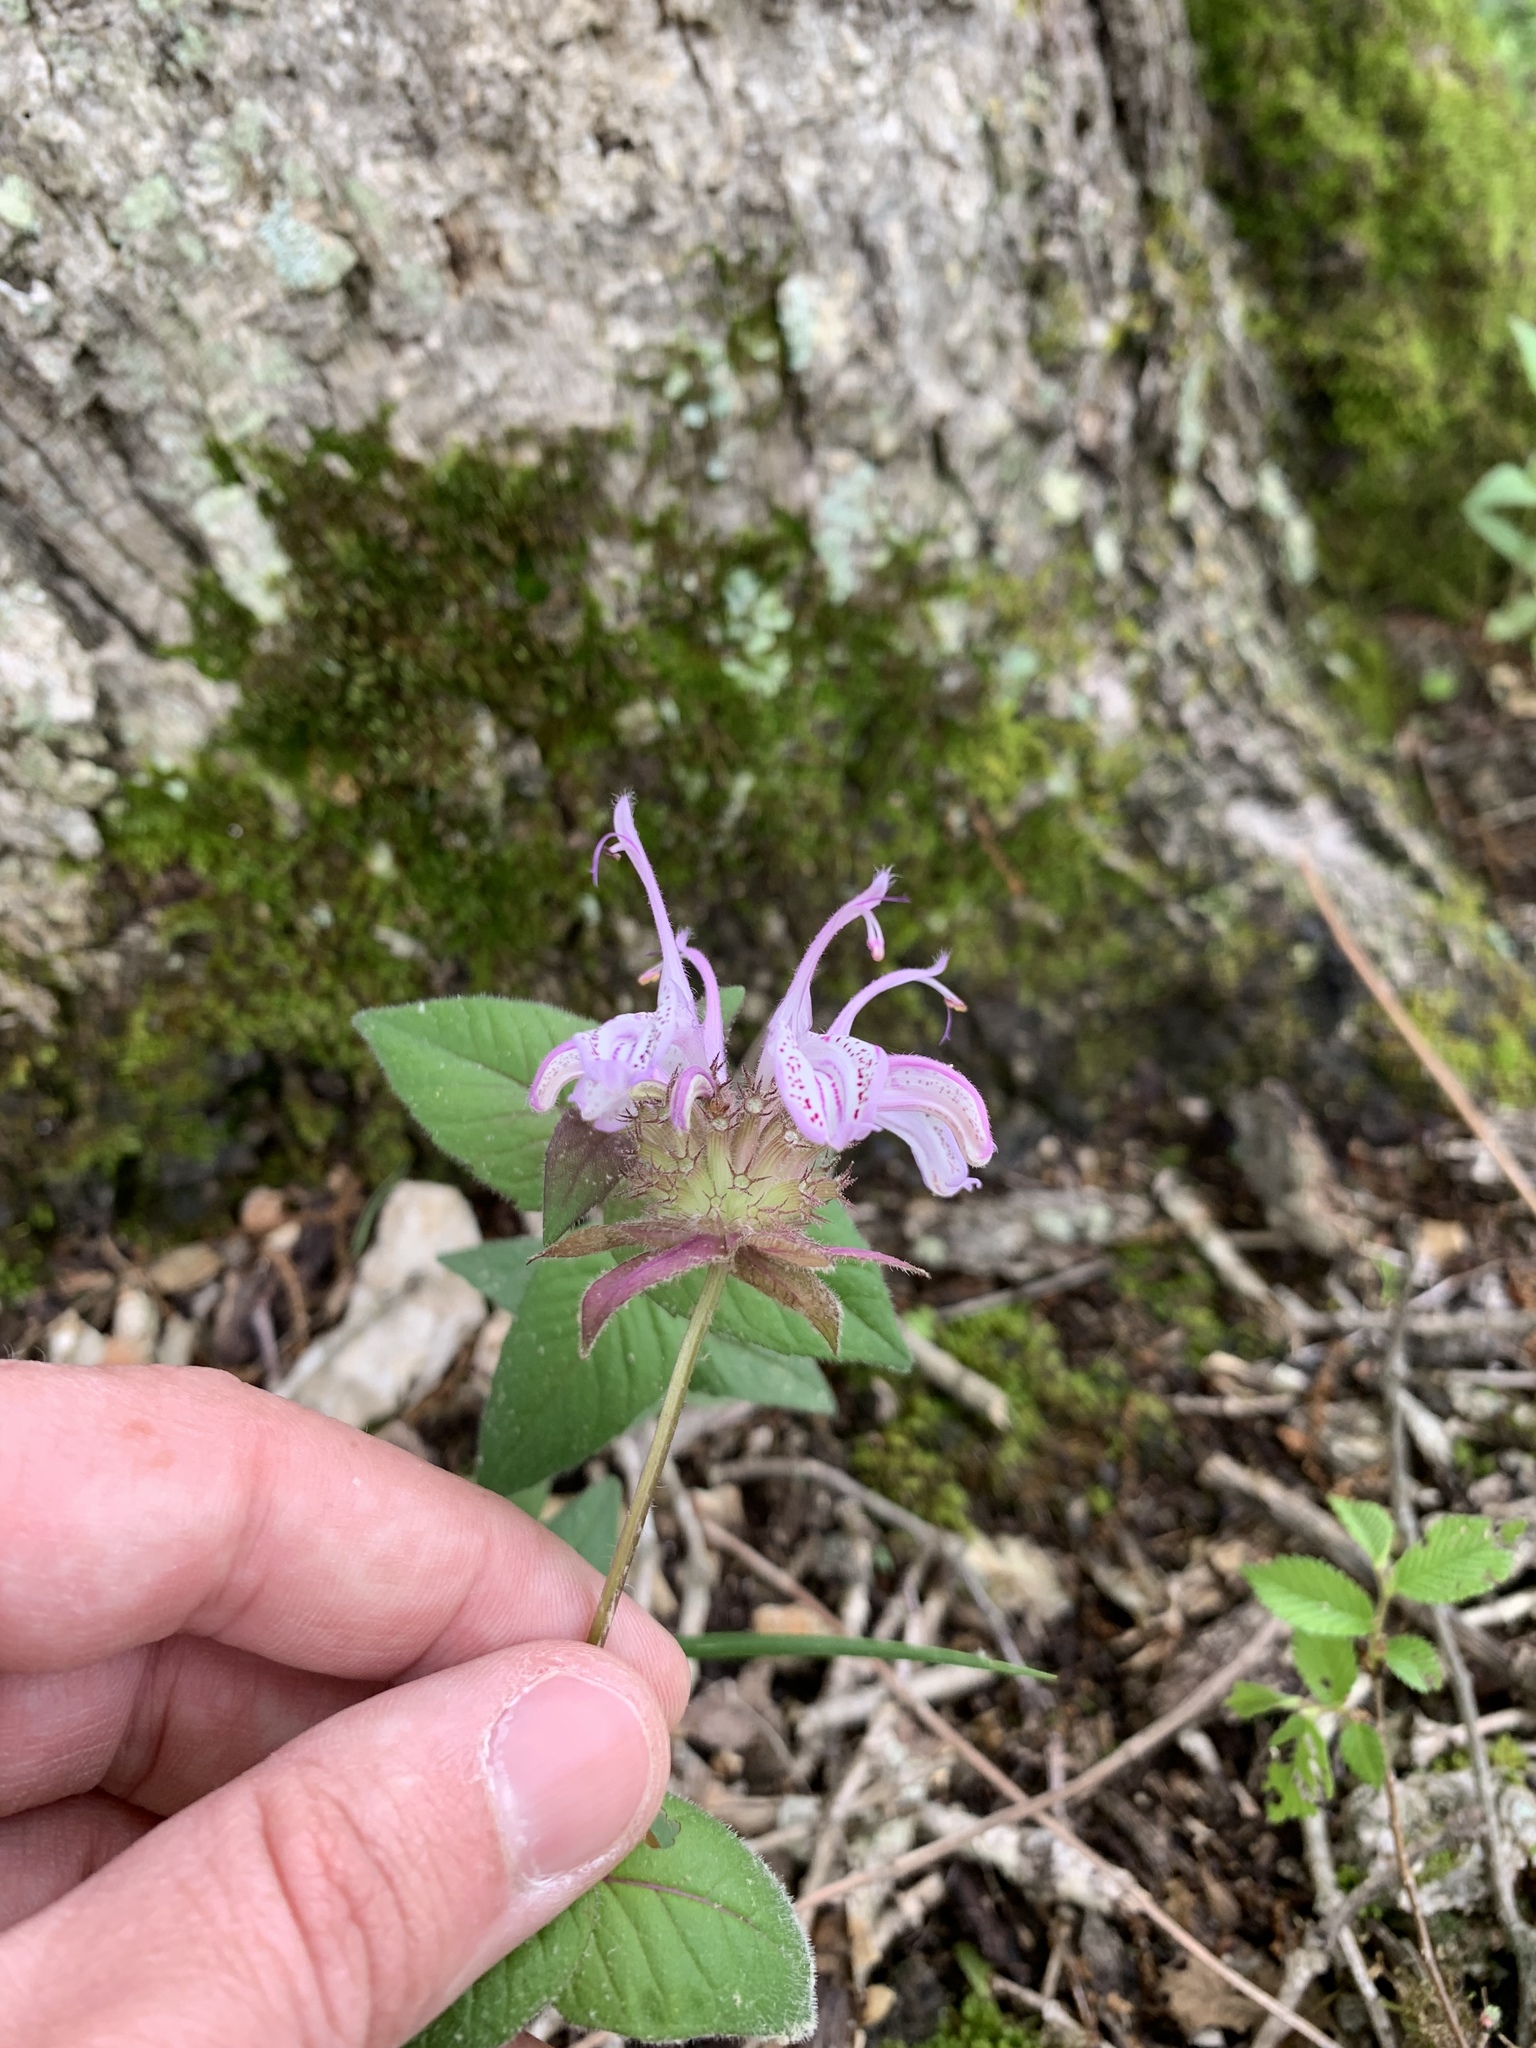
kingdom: Plantae
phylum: Tracheophyta
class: Magnoliopsida
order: Lamiales
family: Lamiaceae
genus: Monarda
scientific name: Monarda bradburiana
